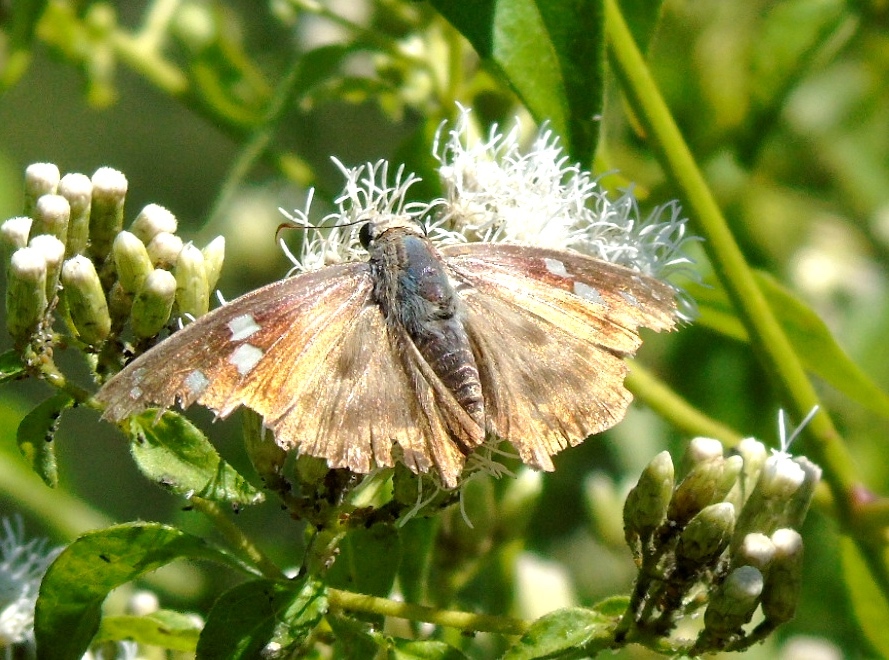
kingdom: Animalia
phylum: Arthropoda
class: Insecta
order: Lepidoptera
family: Hesperiidae
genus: Polygonus
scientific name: Polygonus leo
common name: Hammoch skipper
